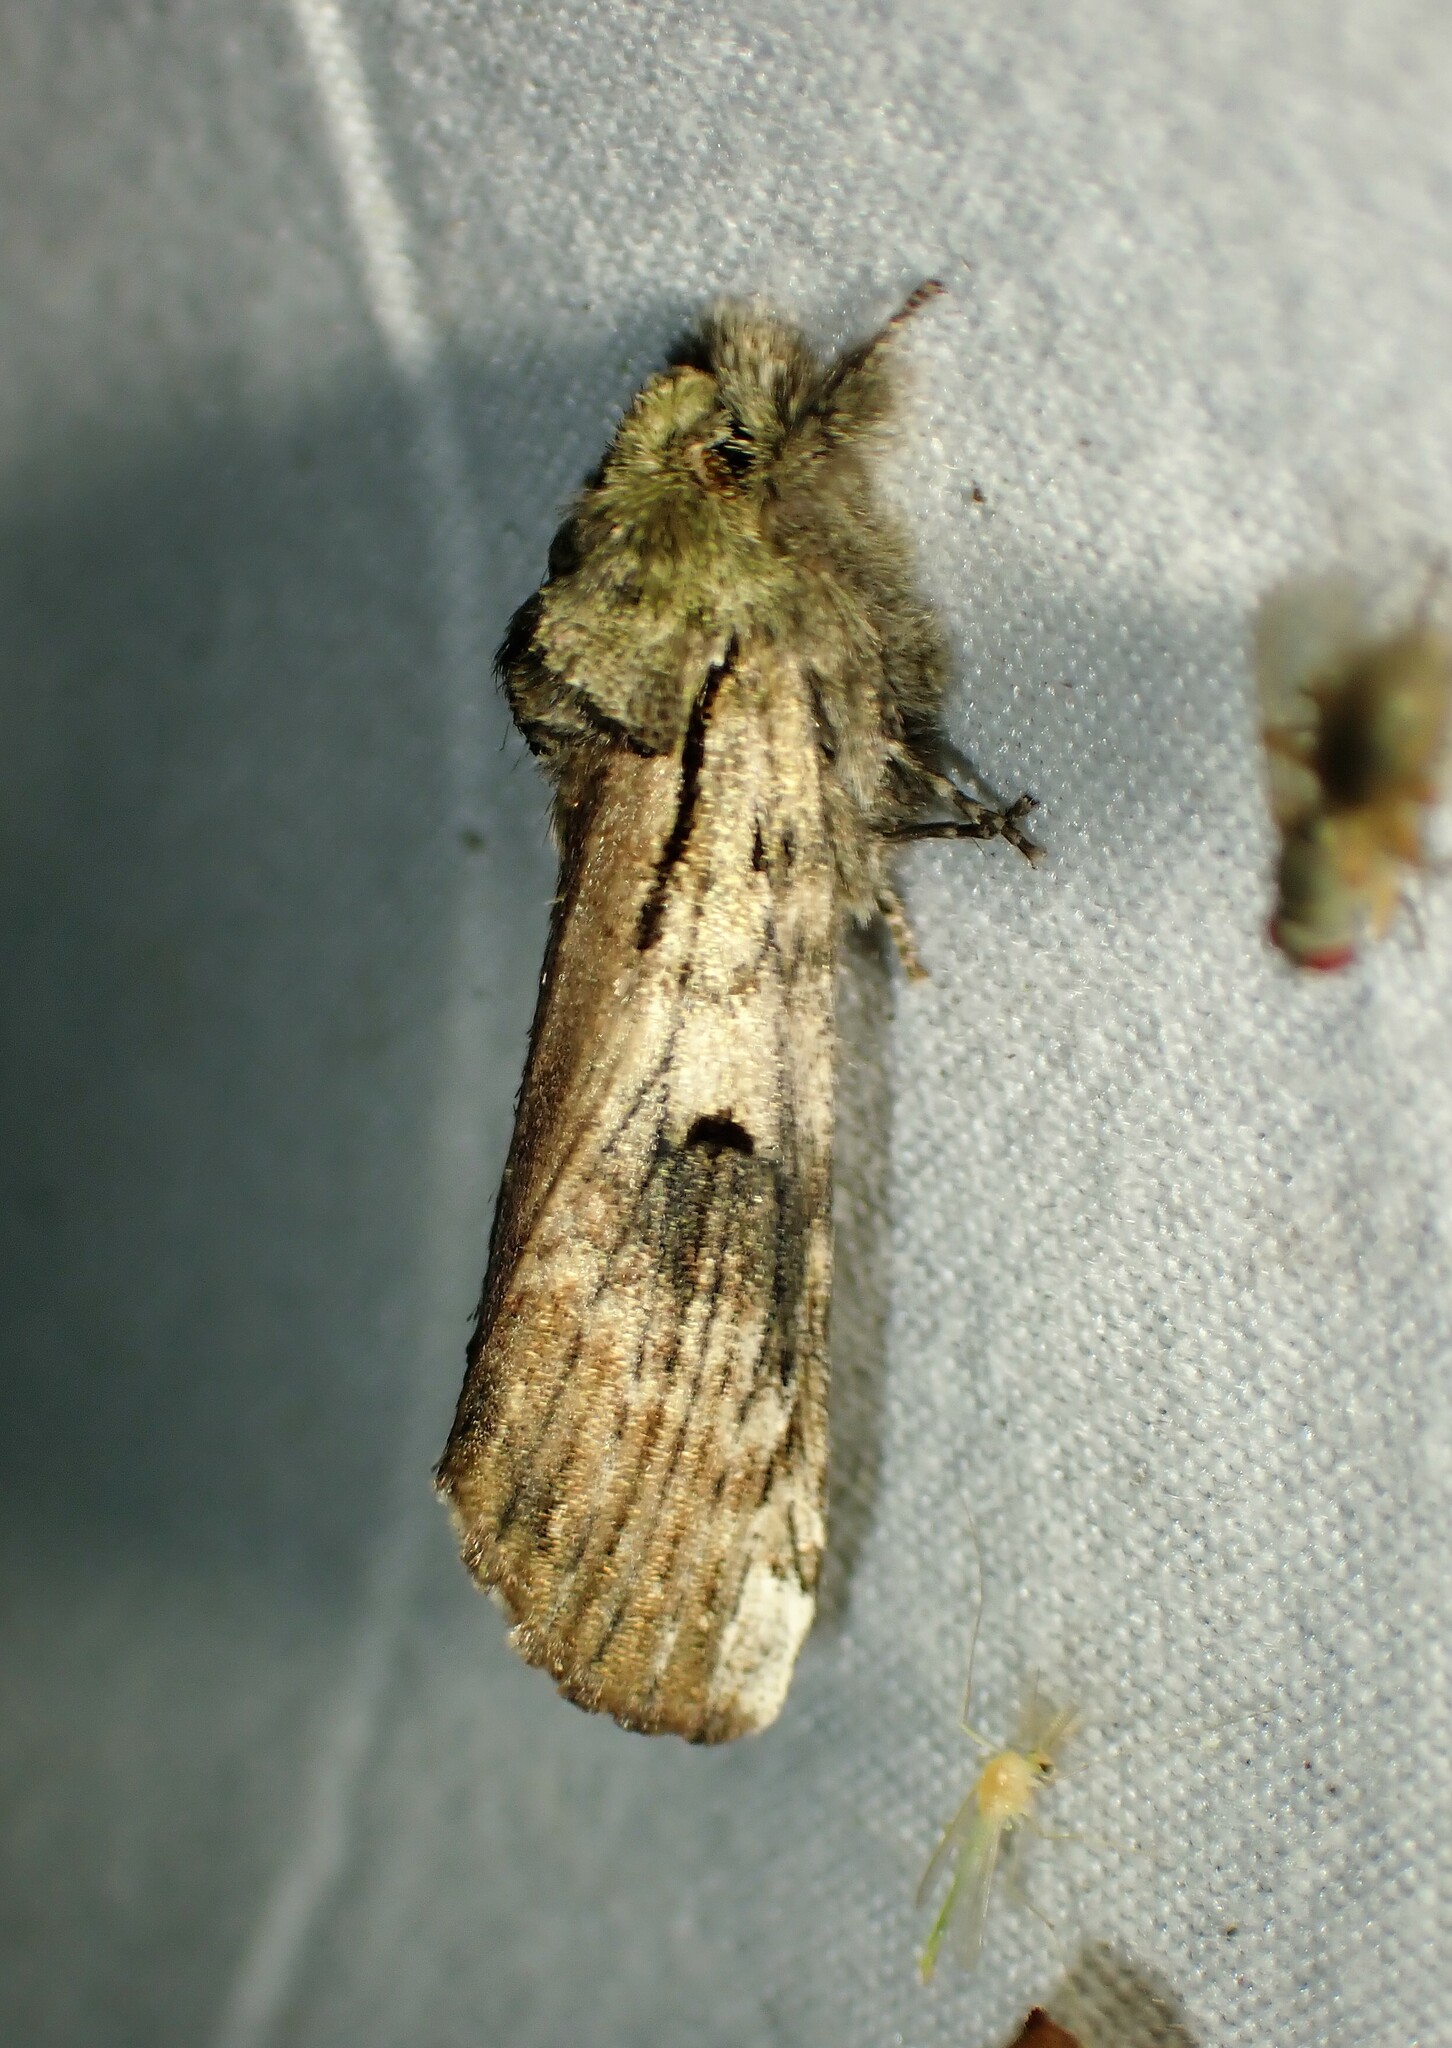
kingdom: Animalia
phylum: Arthropoda
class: Insecta
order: Lepidoptera
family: Notodontidae
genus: Schizura
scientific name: Schizura
